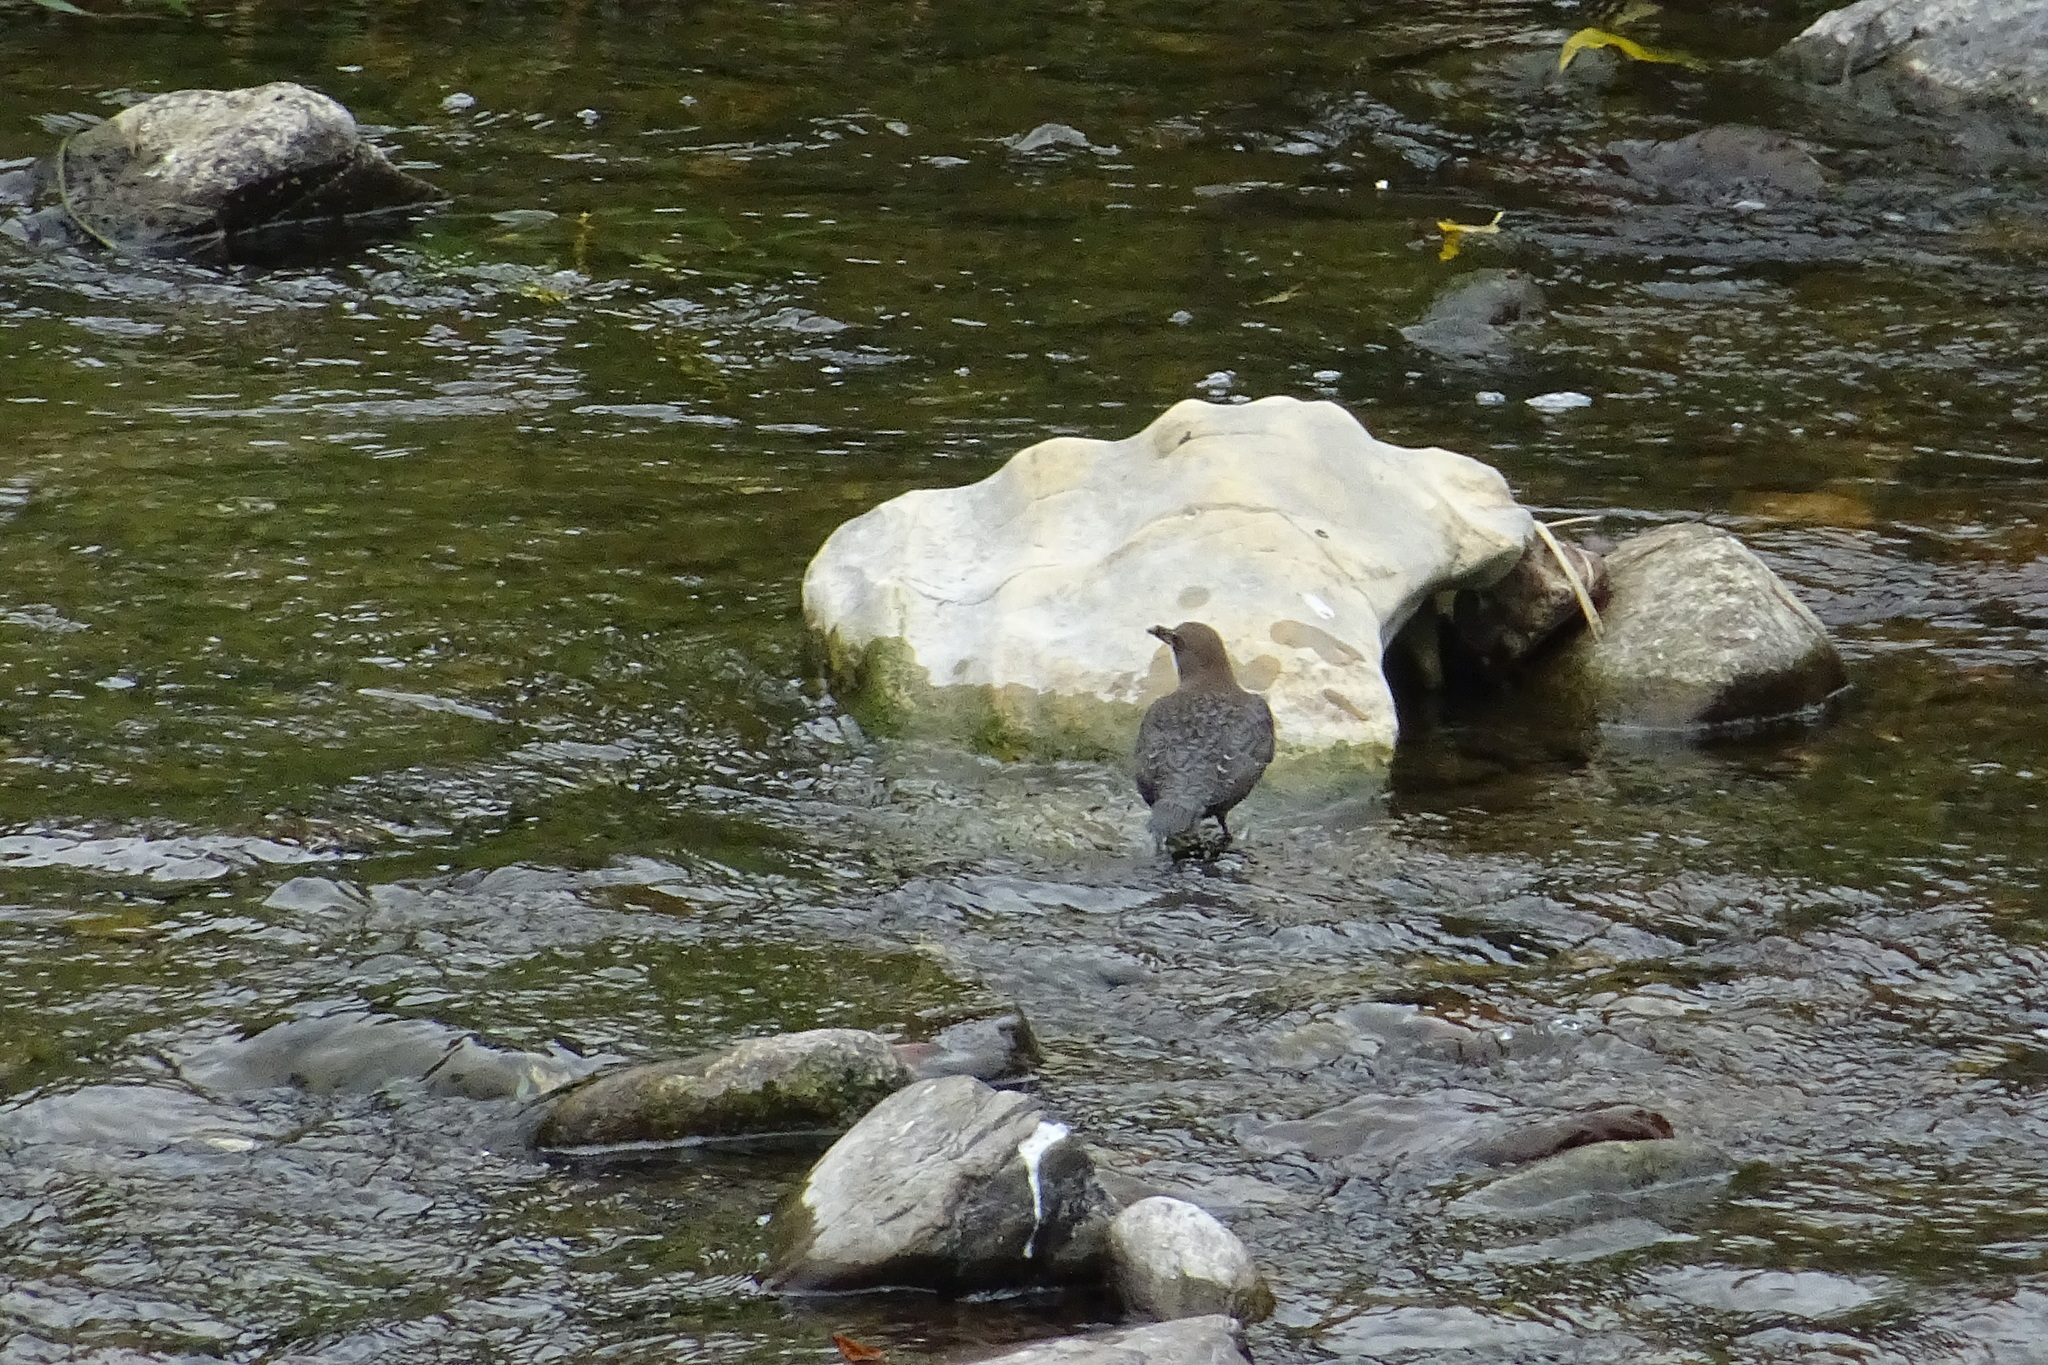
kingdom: Animalia
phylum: Chordata
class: Aves
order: Passeriformes
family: Cinclidae
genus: Cinclus
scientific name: Cinclus cinclus
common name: White-throated dipper
